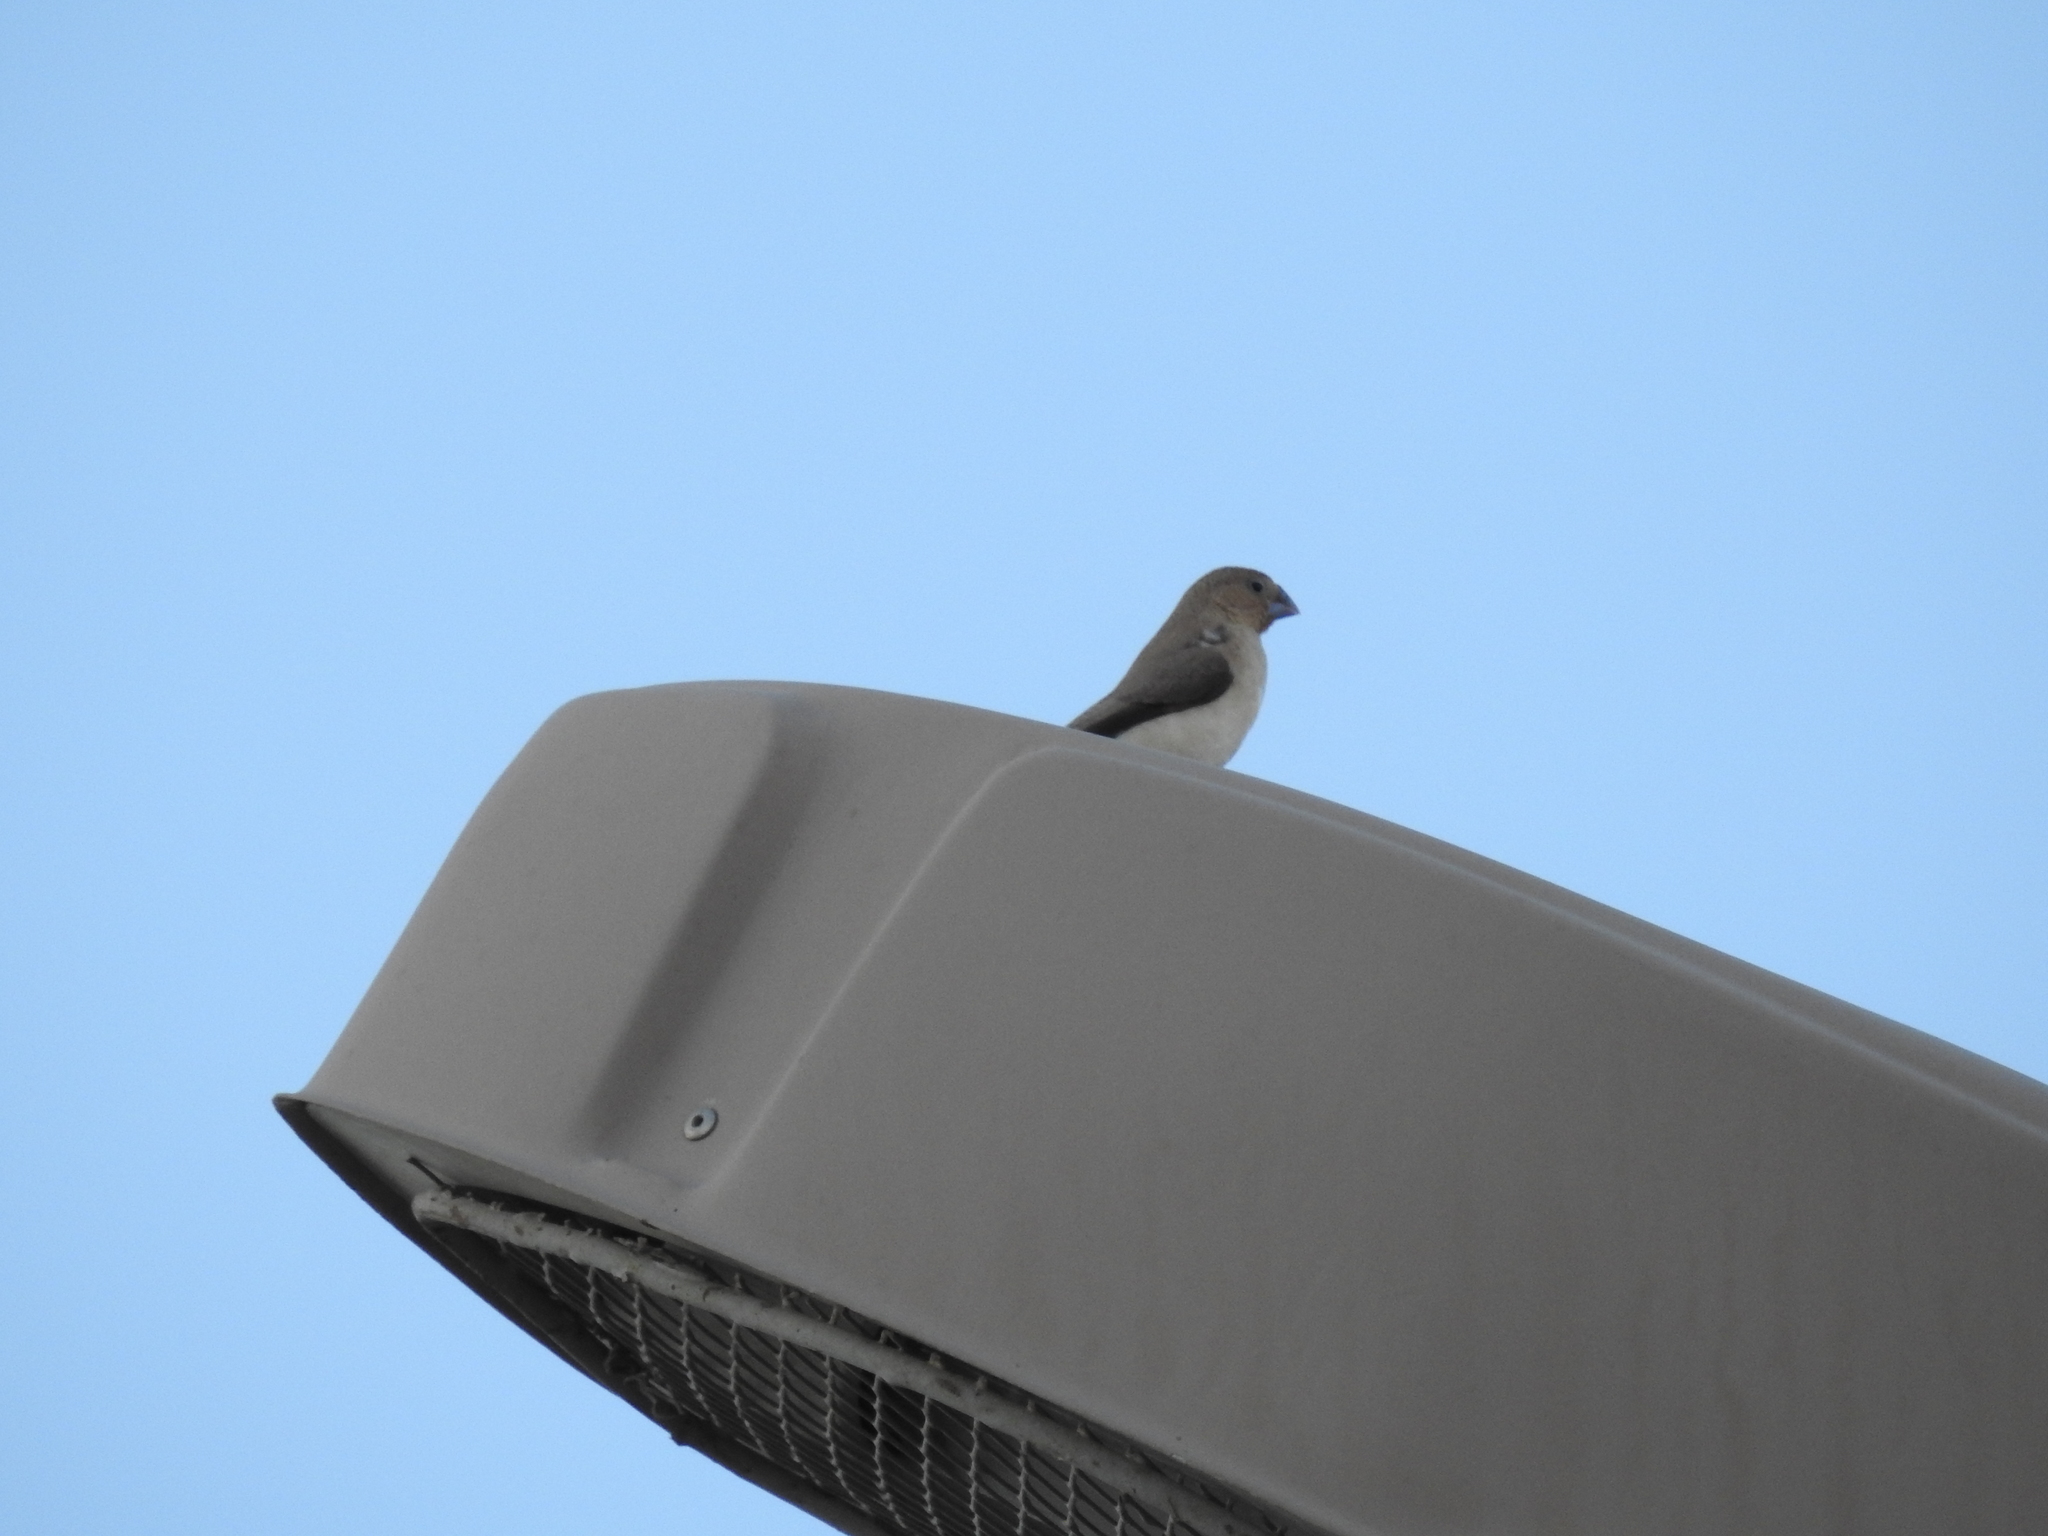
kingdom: Animalia
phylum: Chordata
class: Aves
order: Passeriformes
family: Estrildidae
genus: Euodice
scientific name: Euodice cantans
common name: African silverbill
